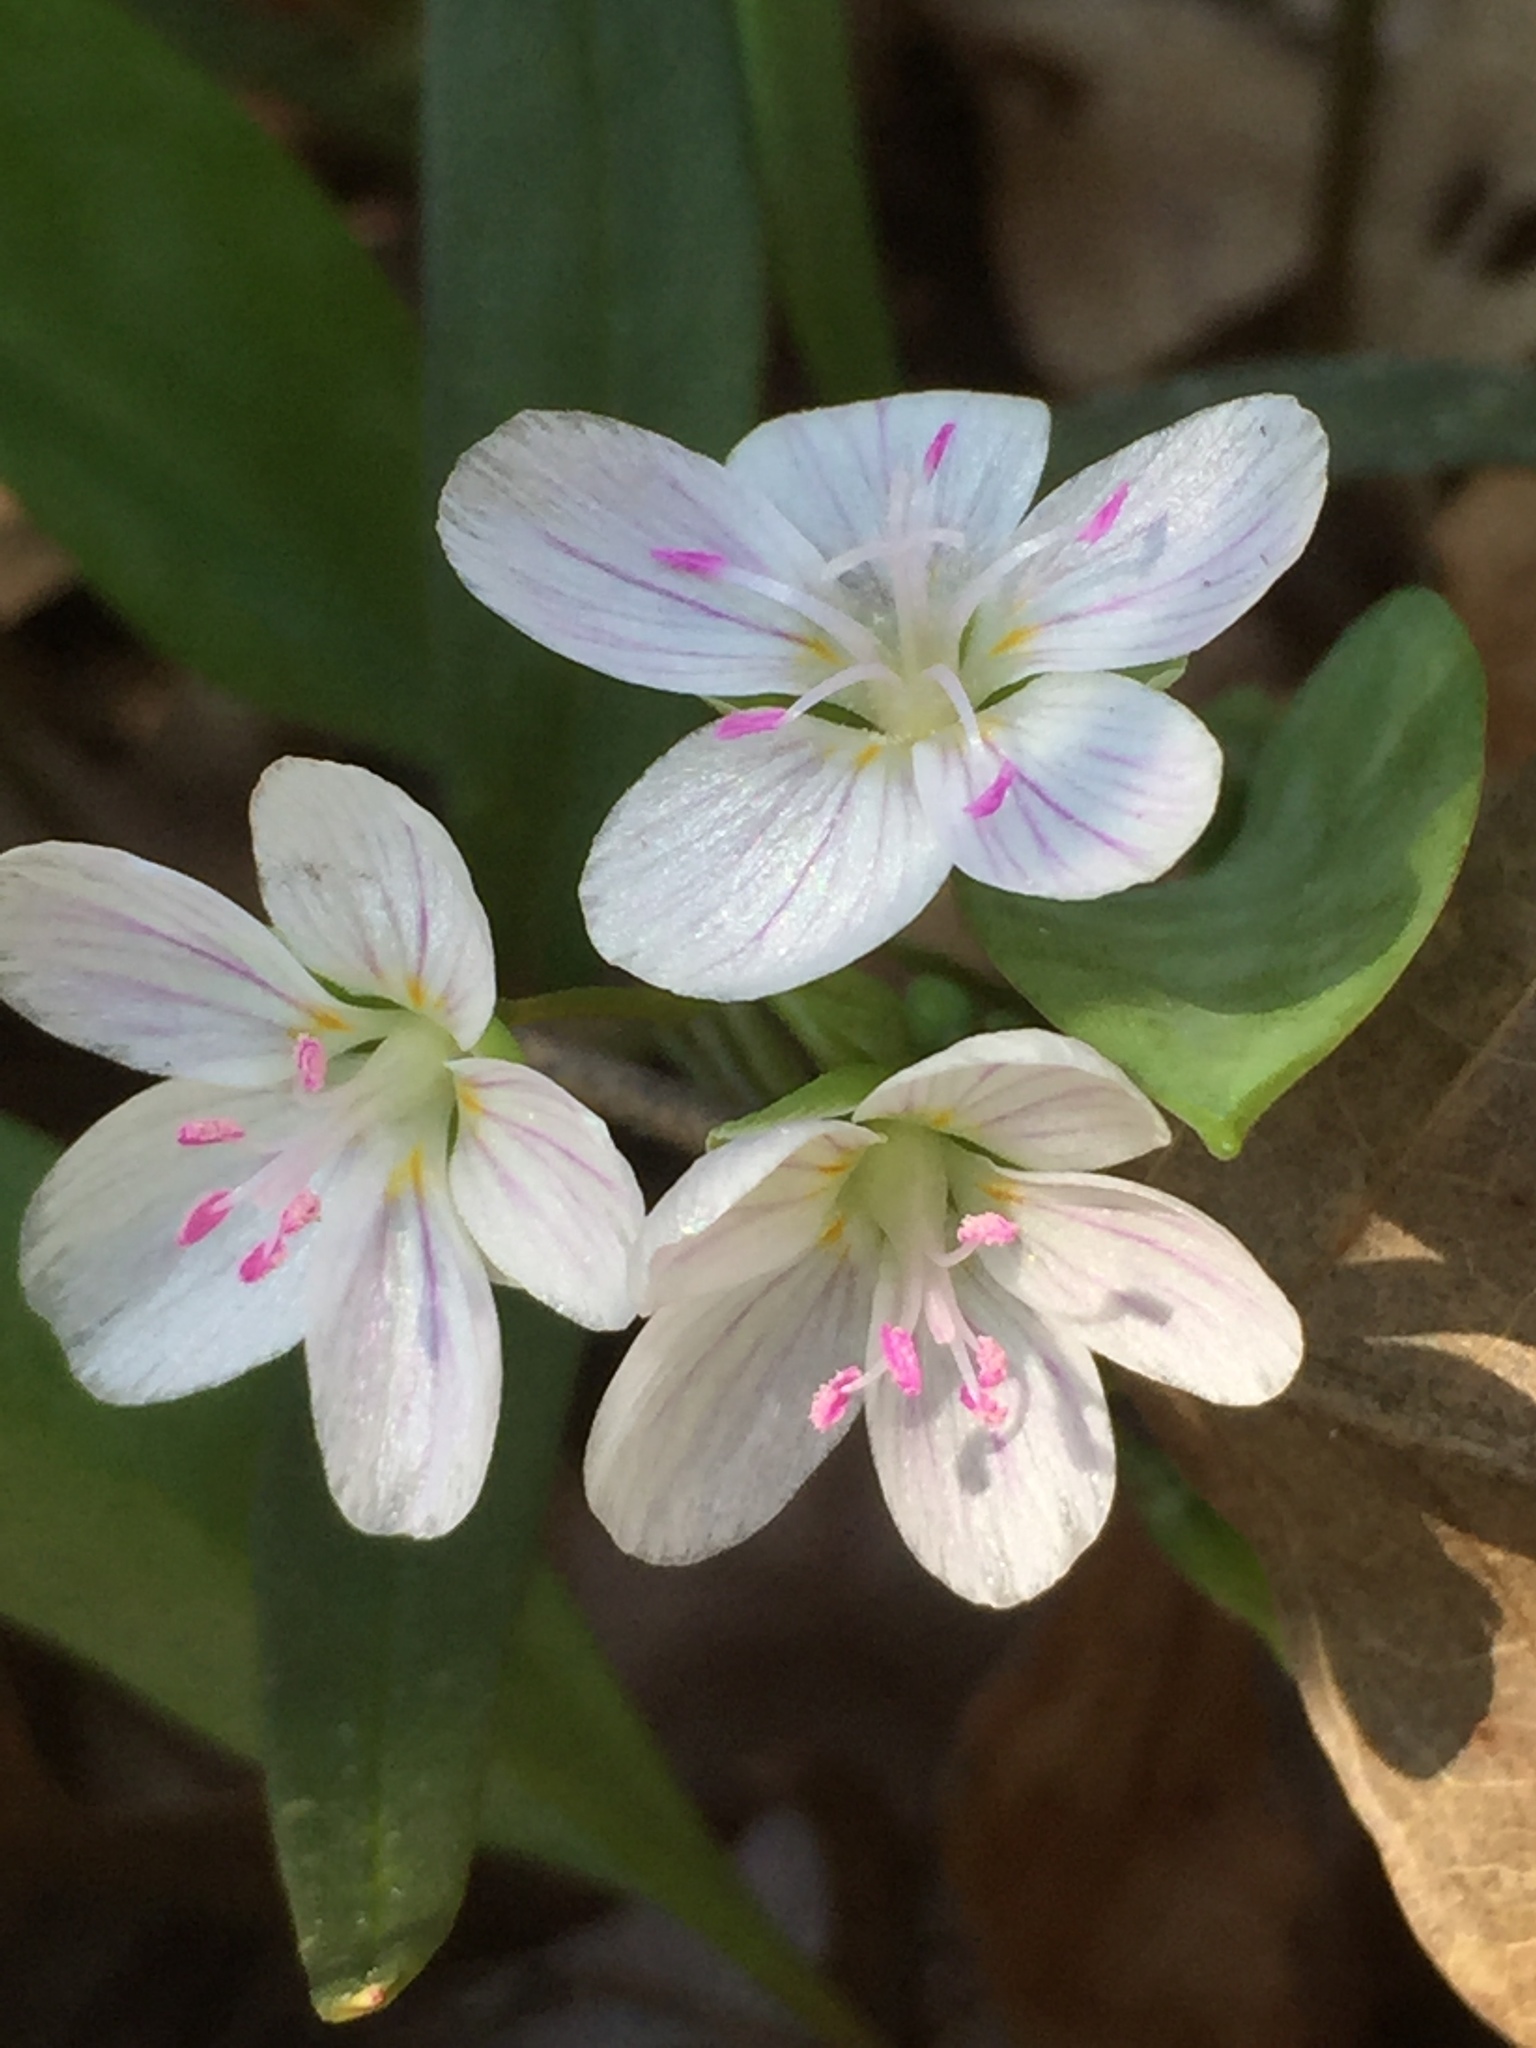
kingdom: Plantae
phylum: Tracheophyta
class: Magnoliopsida
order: Caryophyllales
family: Montiaceae
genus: Claytonia
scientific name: Claytonia virginica
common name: Virginia springbeauty
